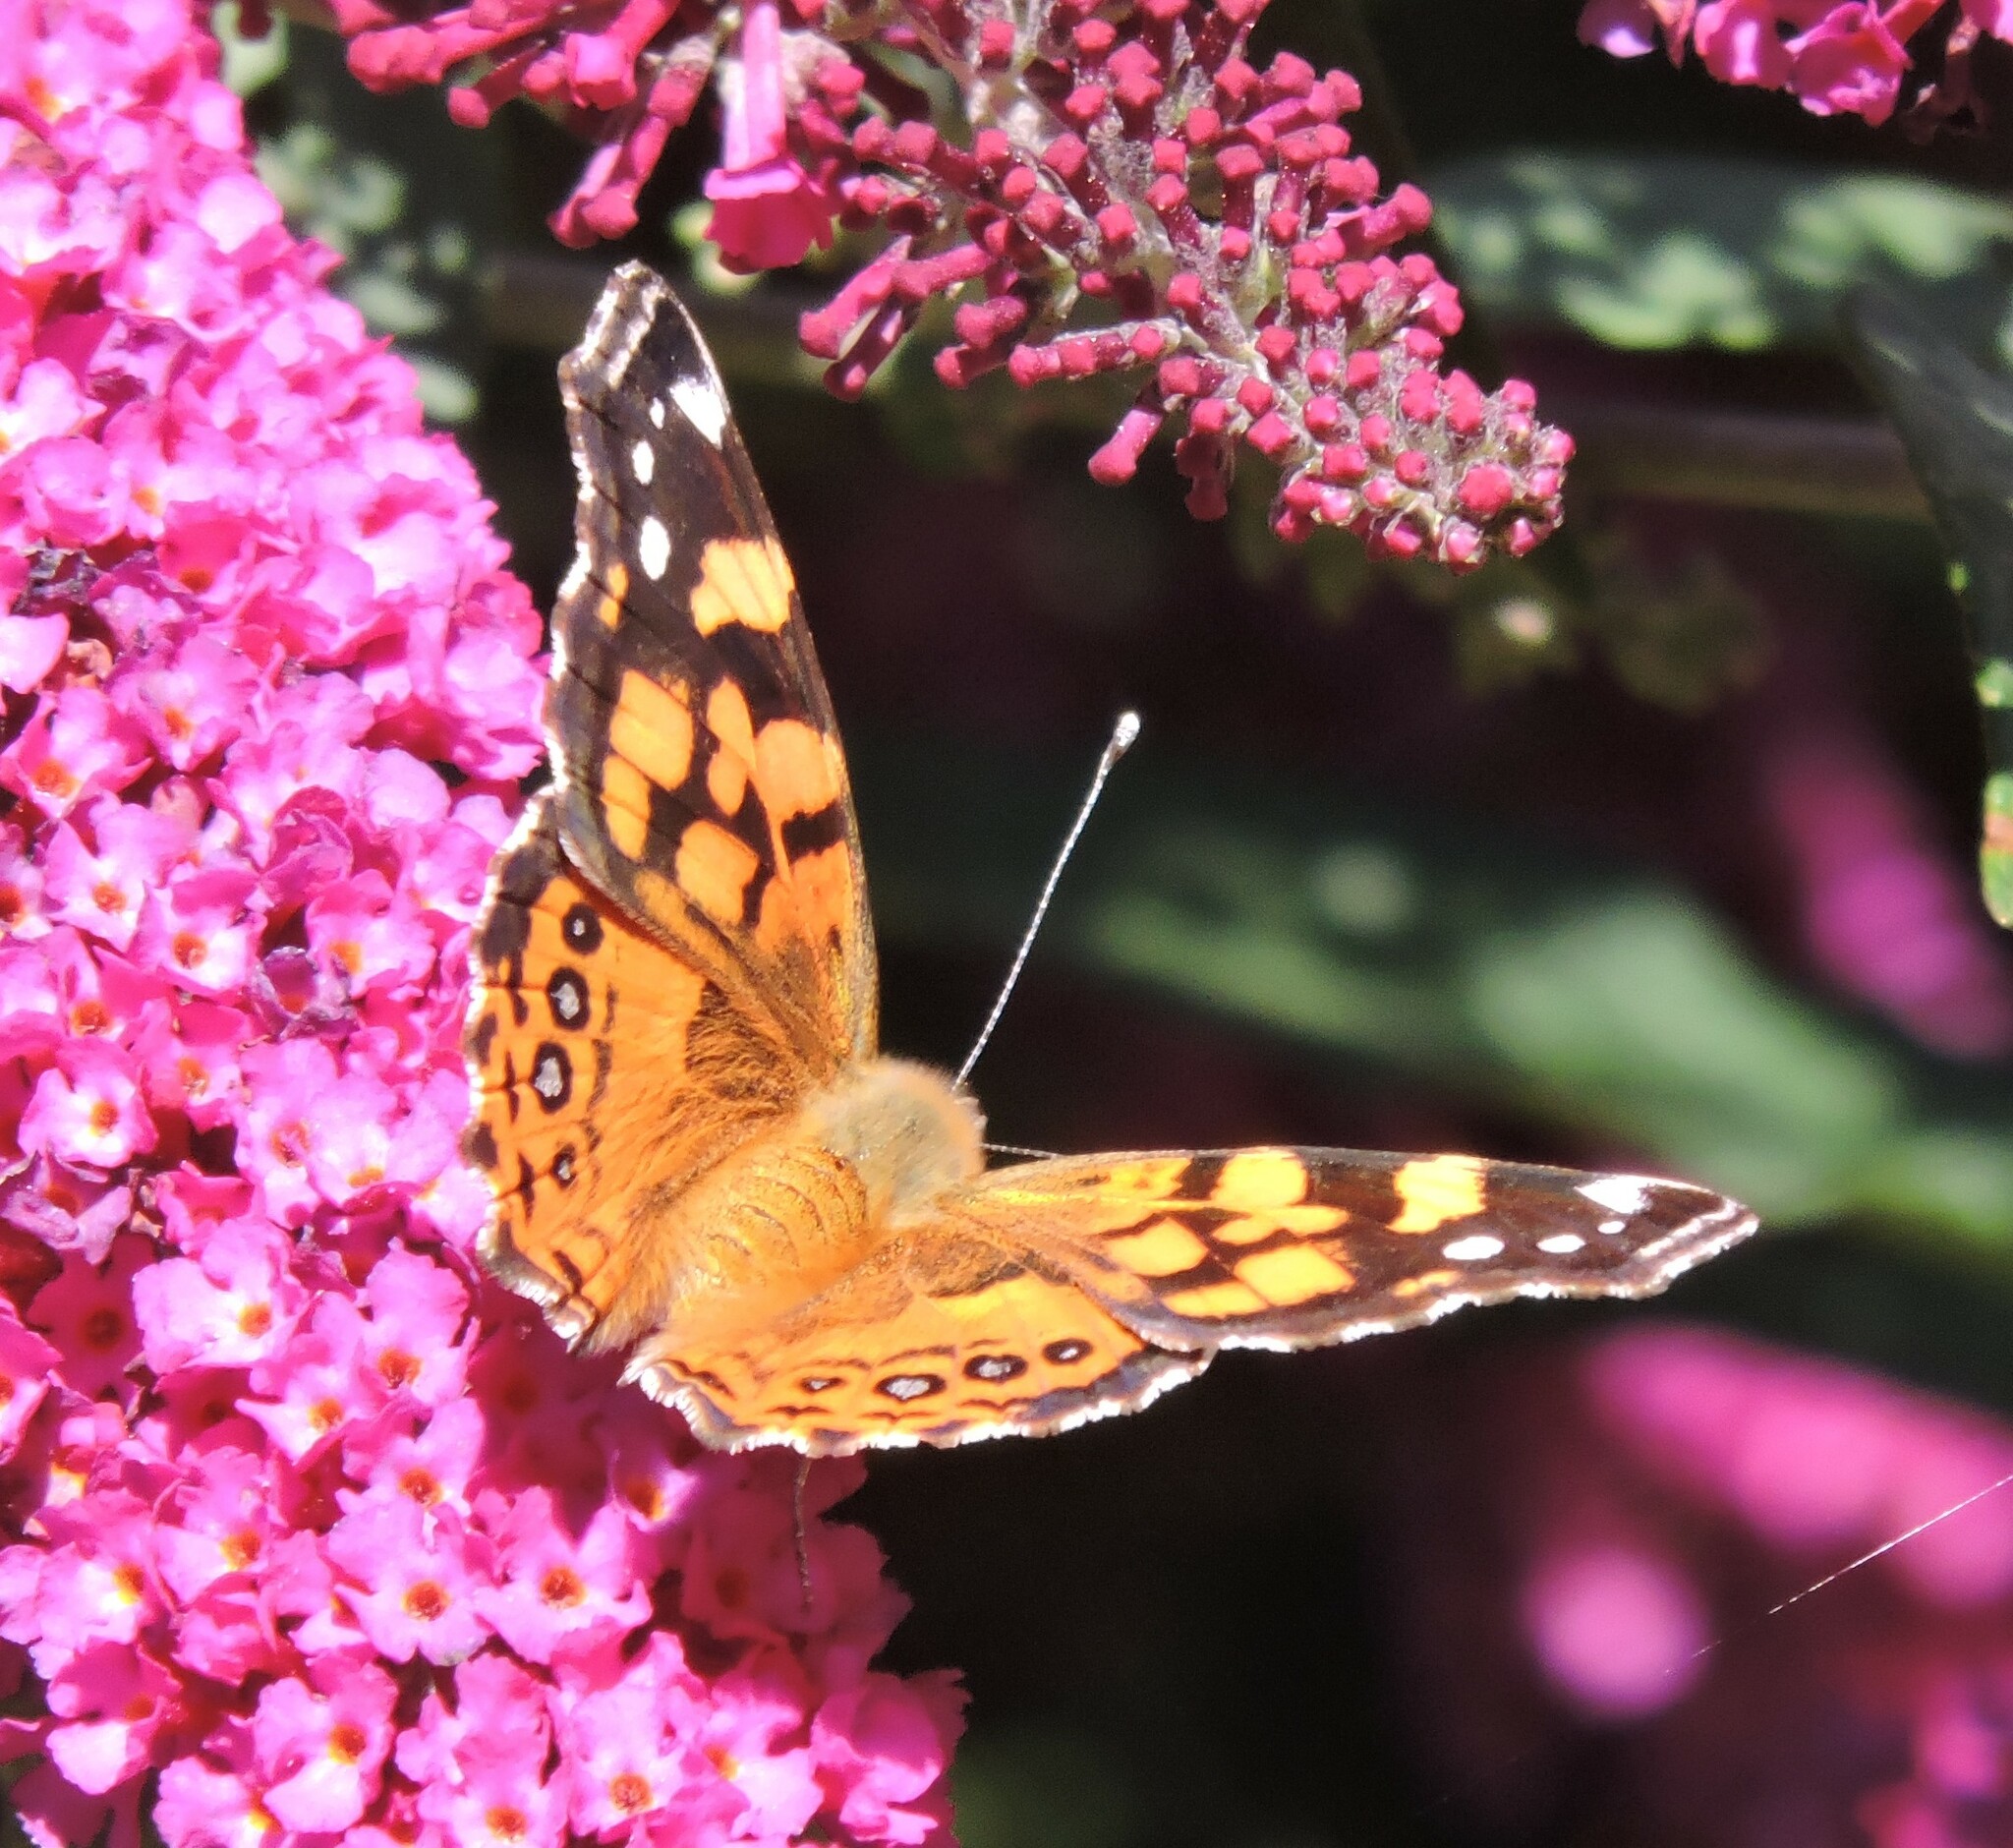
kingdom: Animalia
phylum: Arthropoda
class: Insecta
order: Lepidoptera
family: Nymphalidae
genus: Vanessa
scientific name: Vanessa annabella
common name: West coast lady
